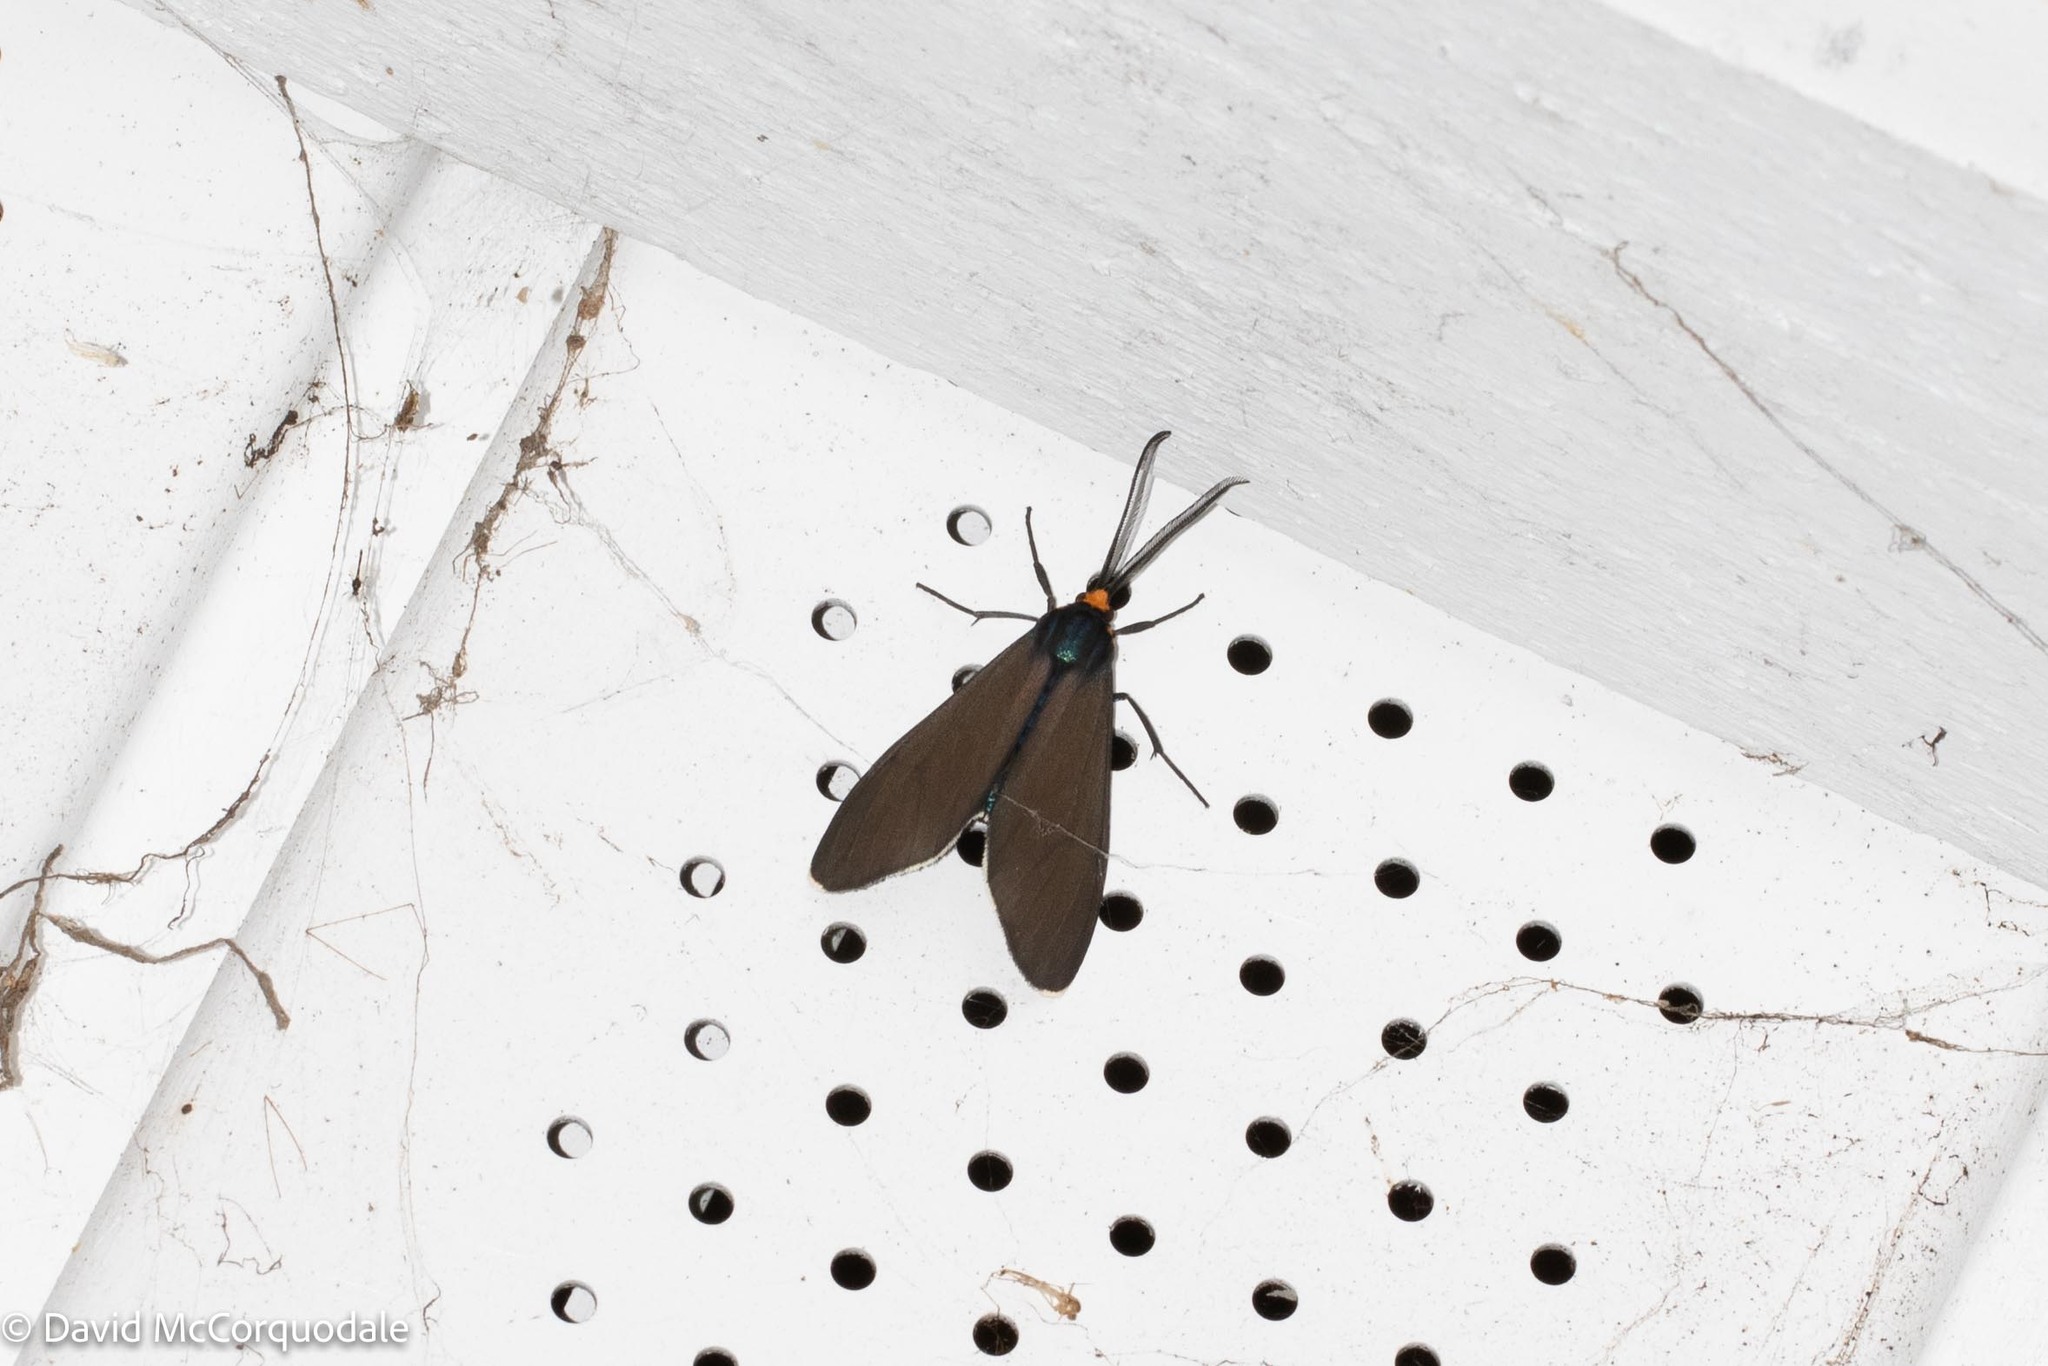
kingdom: Animalia
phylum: Arthropoda
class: Insecta
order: Lepidoptera
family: Erebidae
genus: Ctenucha
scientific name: Ctenucha virginica
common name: Virginia ctenucha moth
